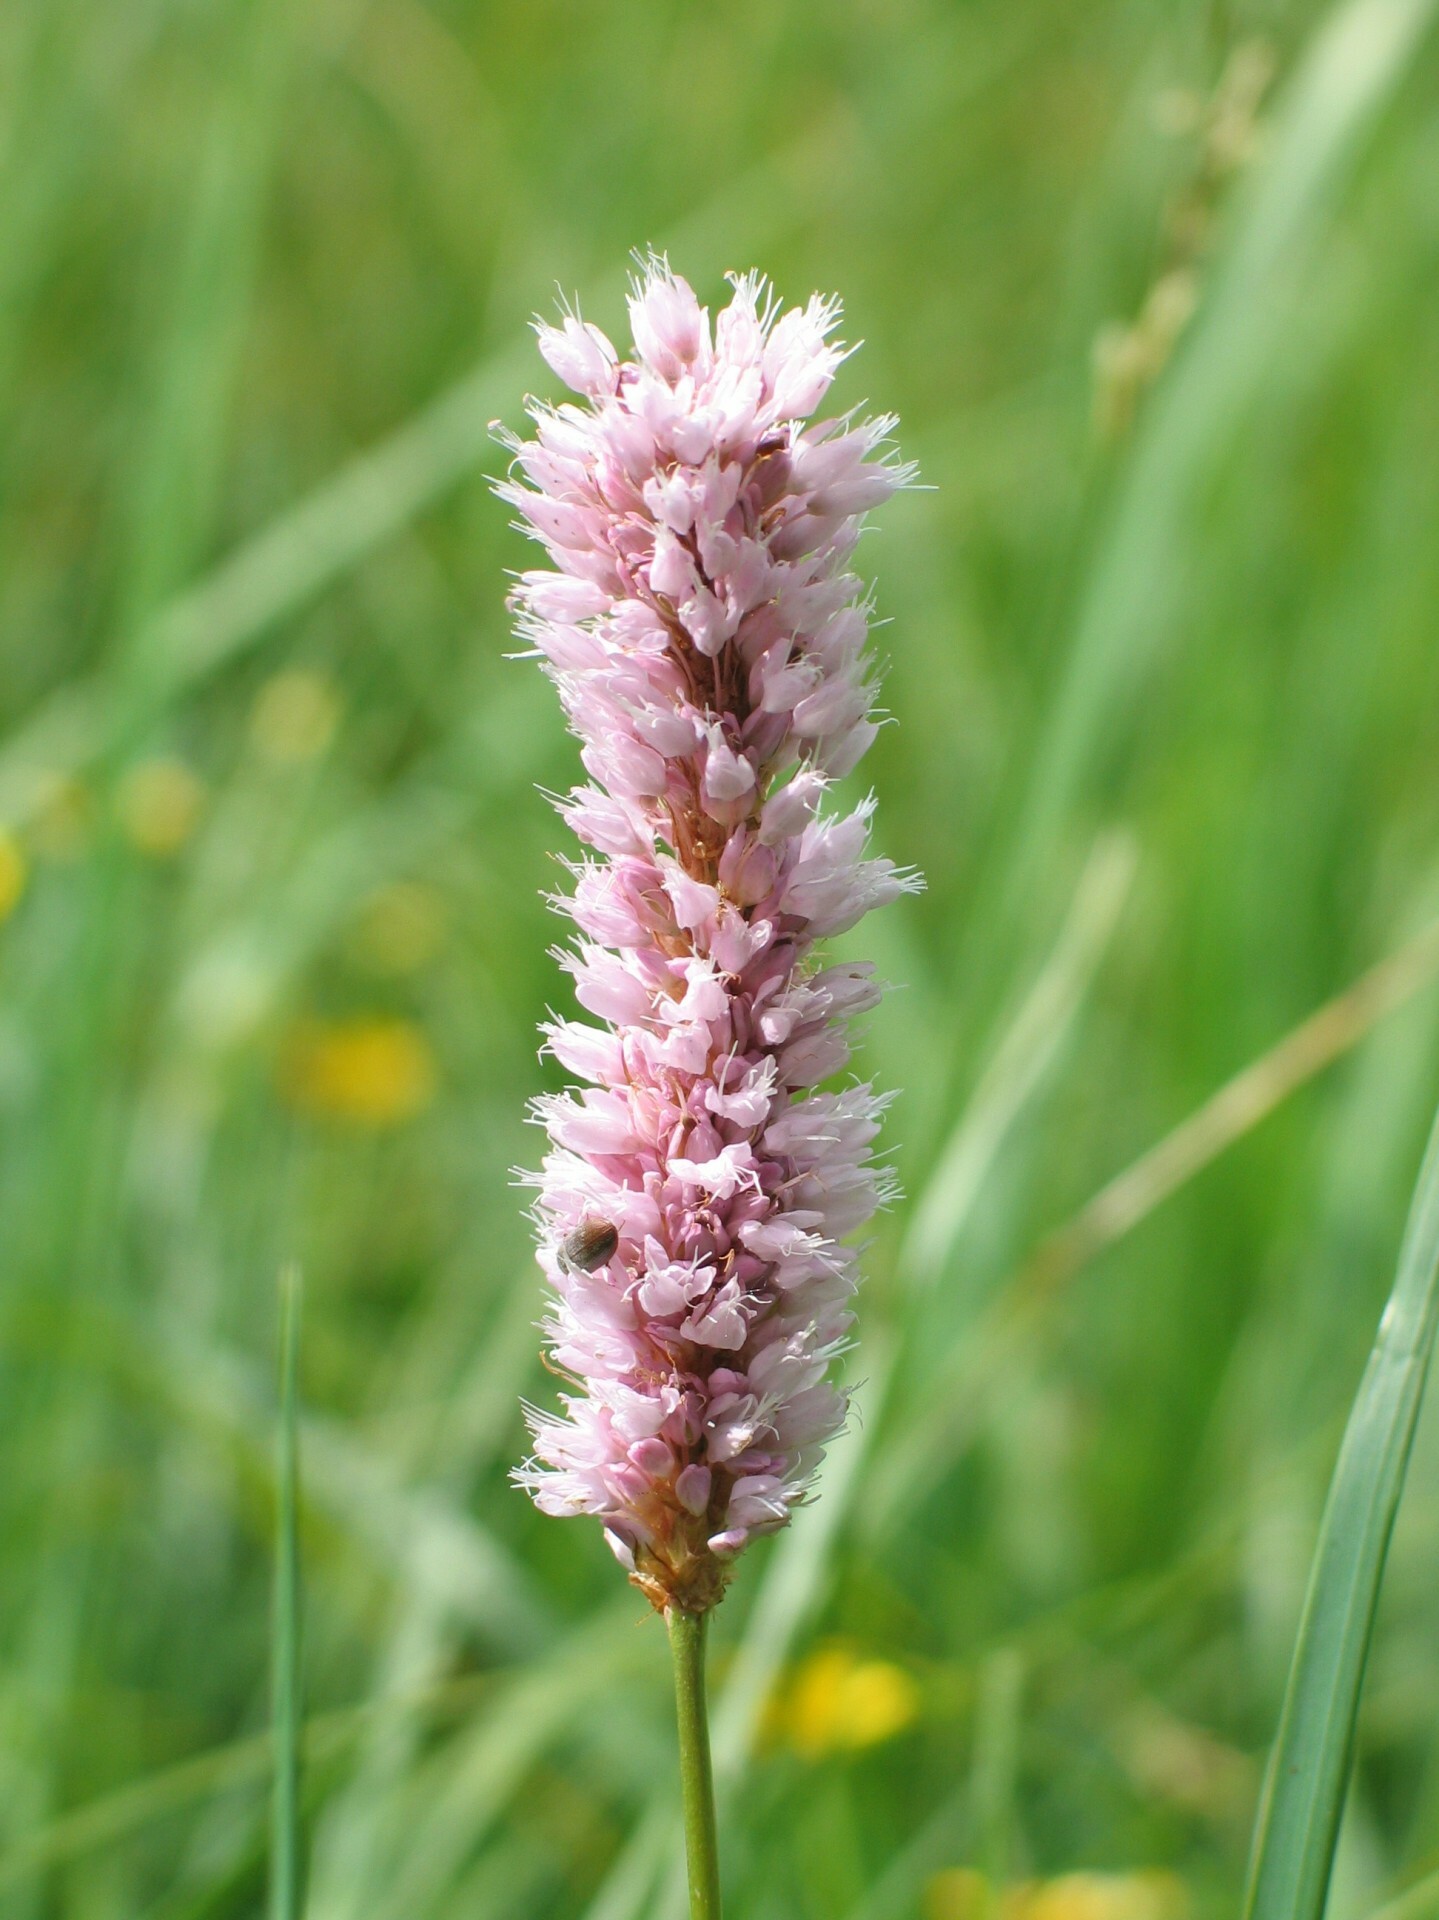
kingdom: Plantae
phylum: Tracheophyta
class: Magnoliopsida
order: Caryophyllales
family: Polygonaceae
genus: Bistorta
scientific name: Bistorta officinalis
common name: Common bistort
